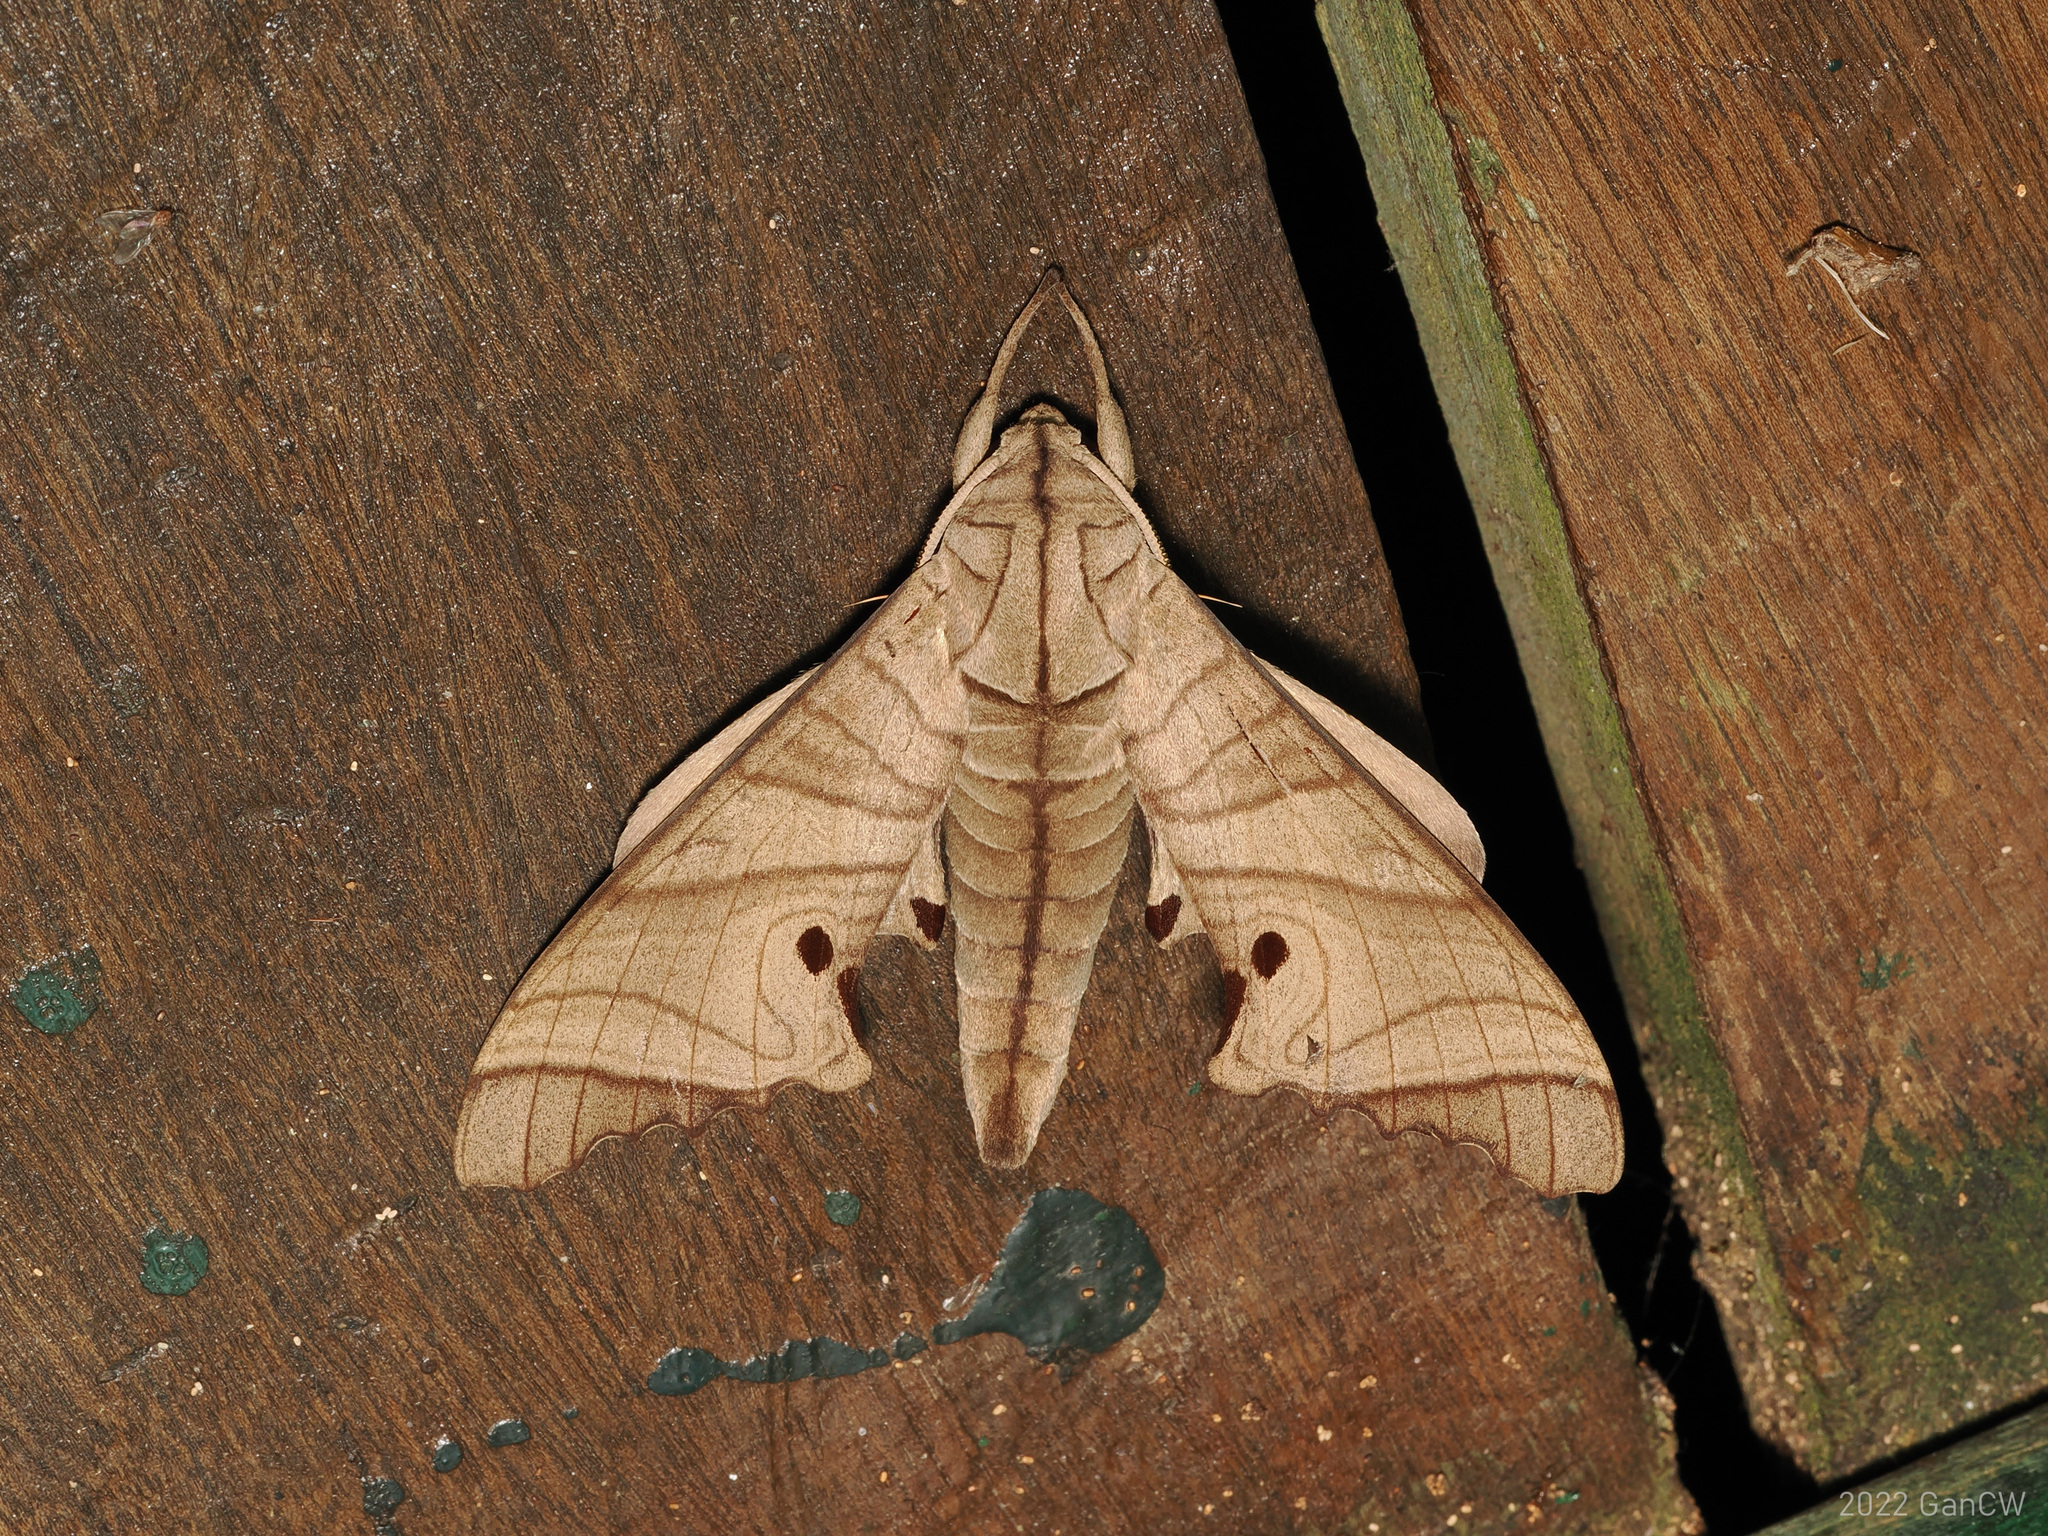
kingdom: Animalia
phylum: Arthropoda
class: Insecta
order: Lepidoptera
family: Sphingidae
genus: Marumba
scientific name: Marumba dyras
